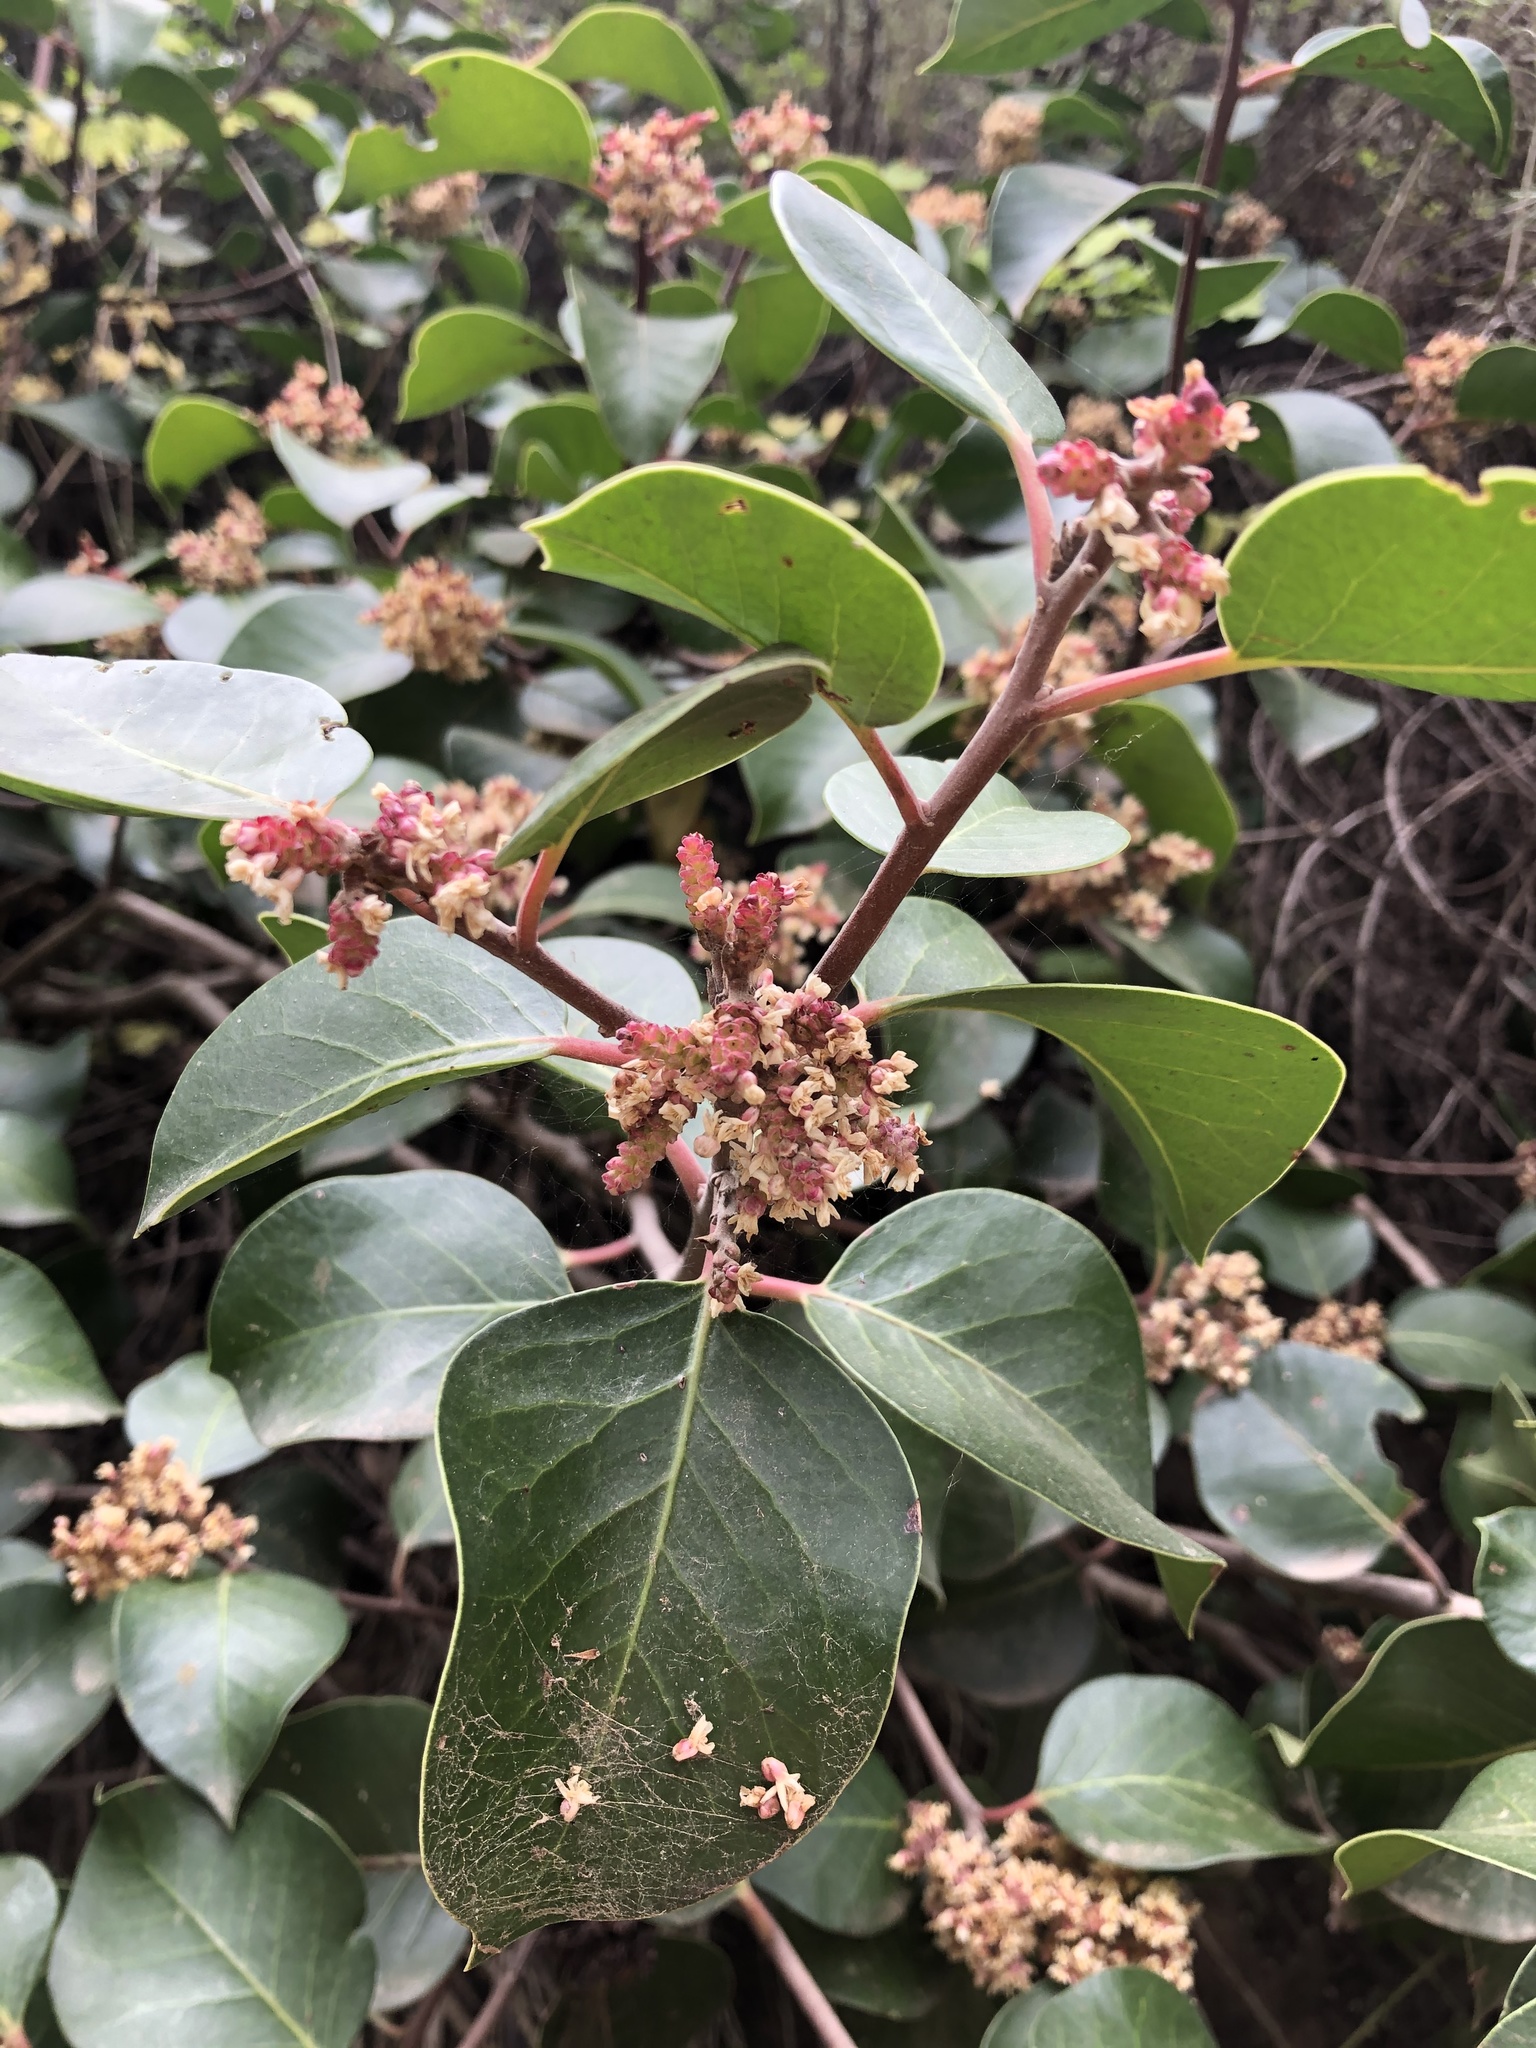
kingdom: Plantae
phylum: Tracheophyta
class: Magnoliopsida
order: Sapindales
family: Anacardiaceae
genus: Rhus
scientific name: Rhus ovata
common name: Sugar sumac
